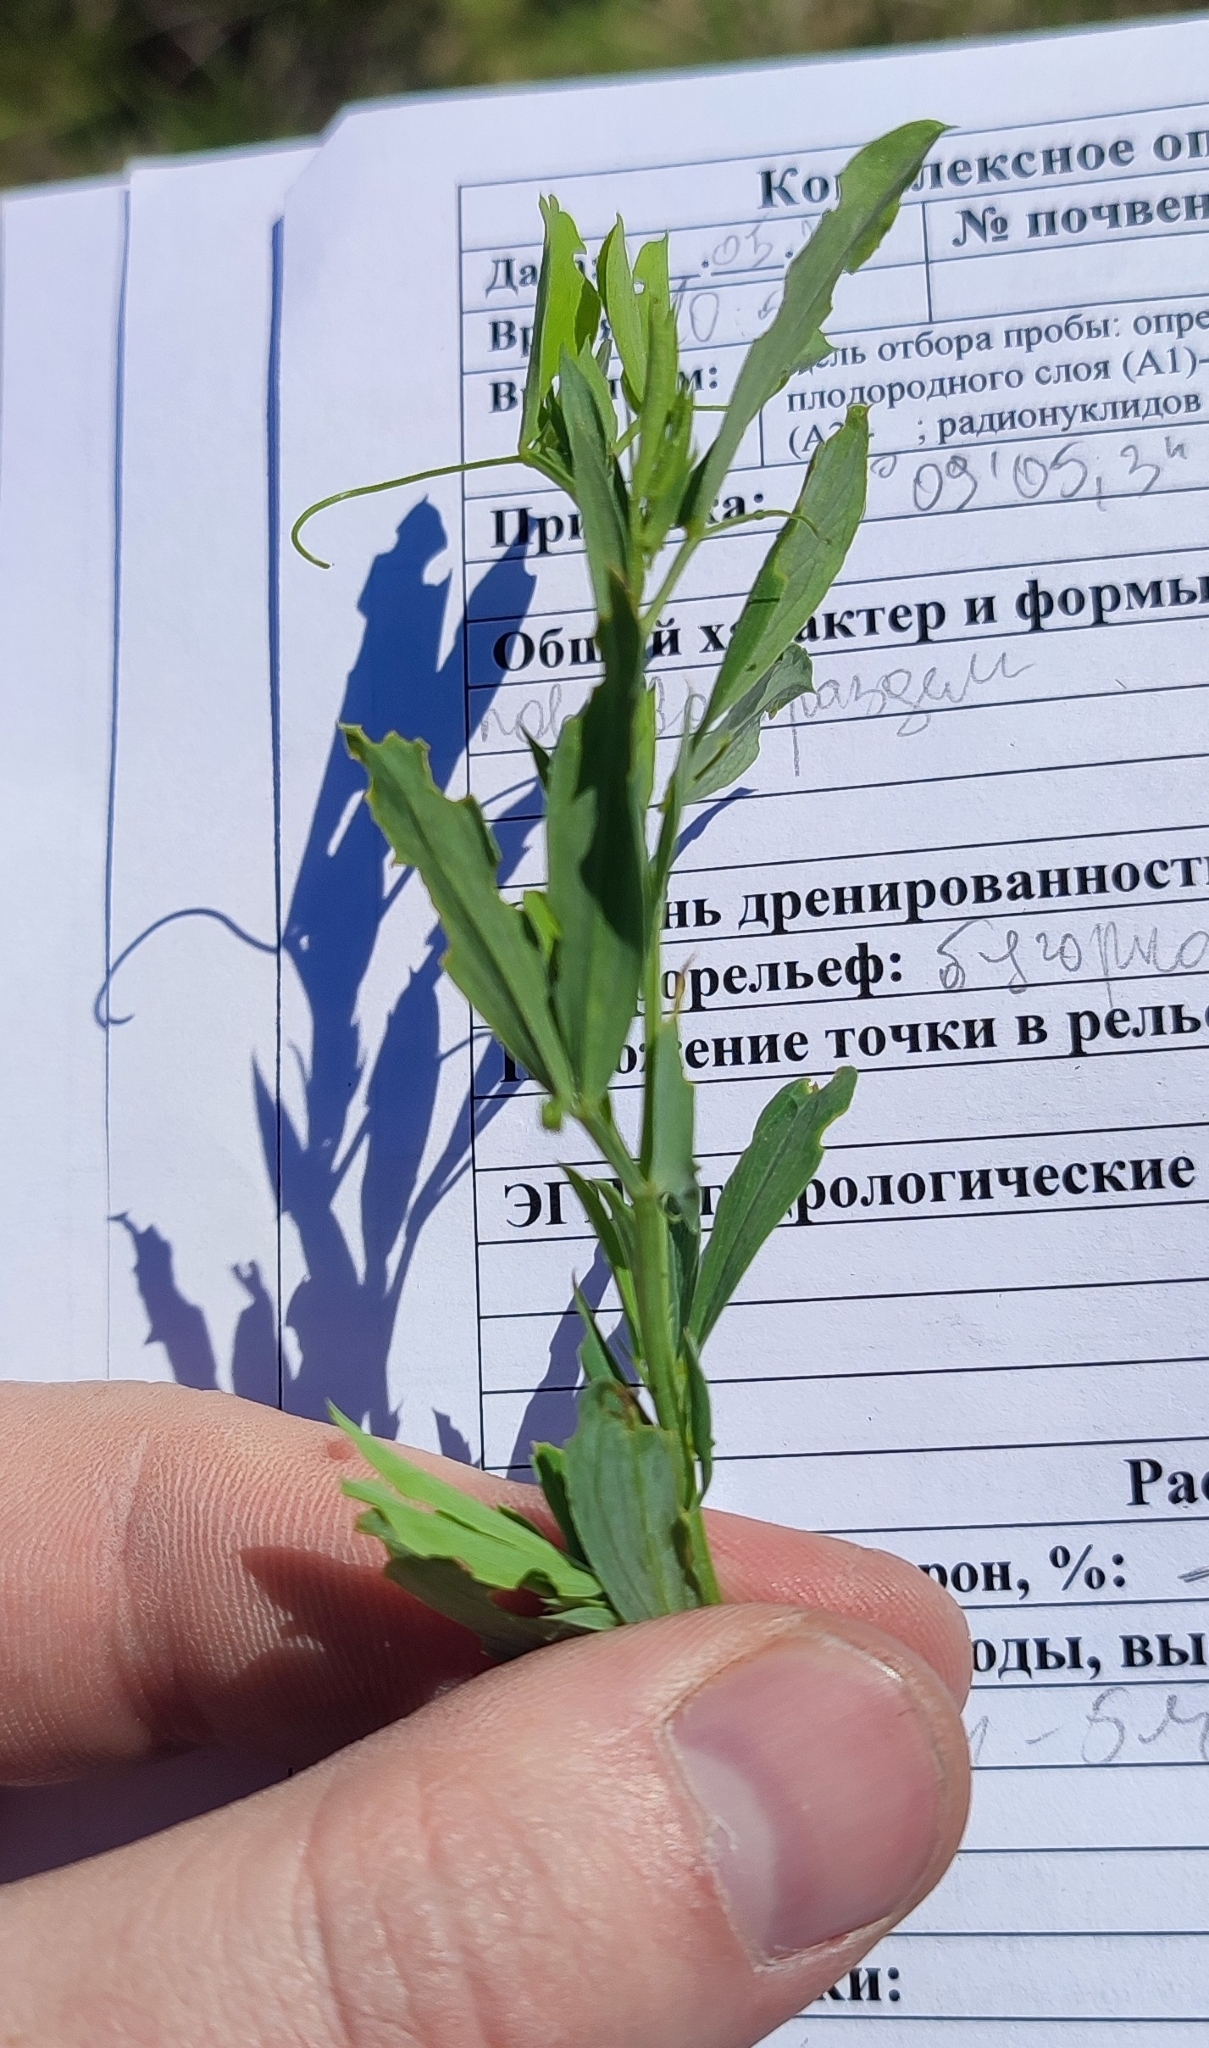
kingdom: Plantae
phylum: Tracheophyta
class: Magnoliopsida
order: Fabales
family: Fabaceae
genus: Lathyrus
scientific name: Lathyrus tuberosus
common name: Tuberous pea
